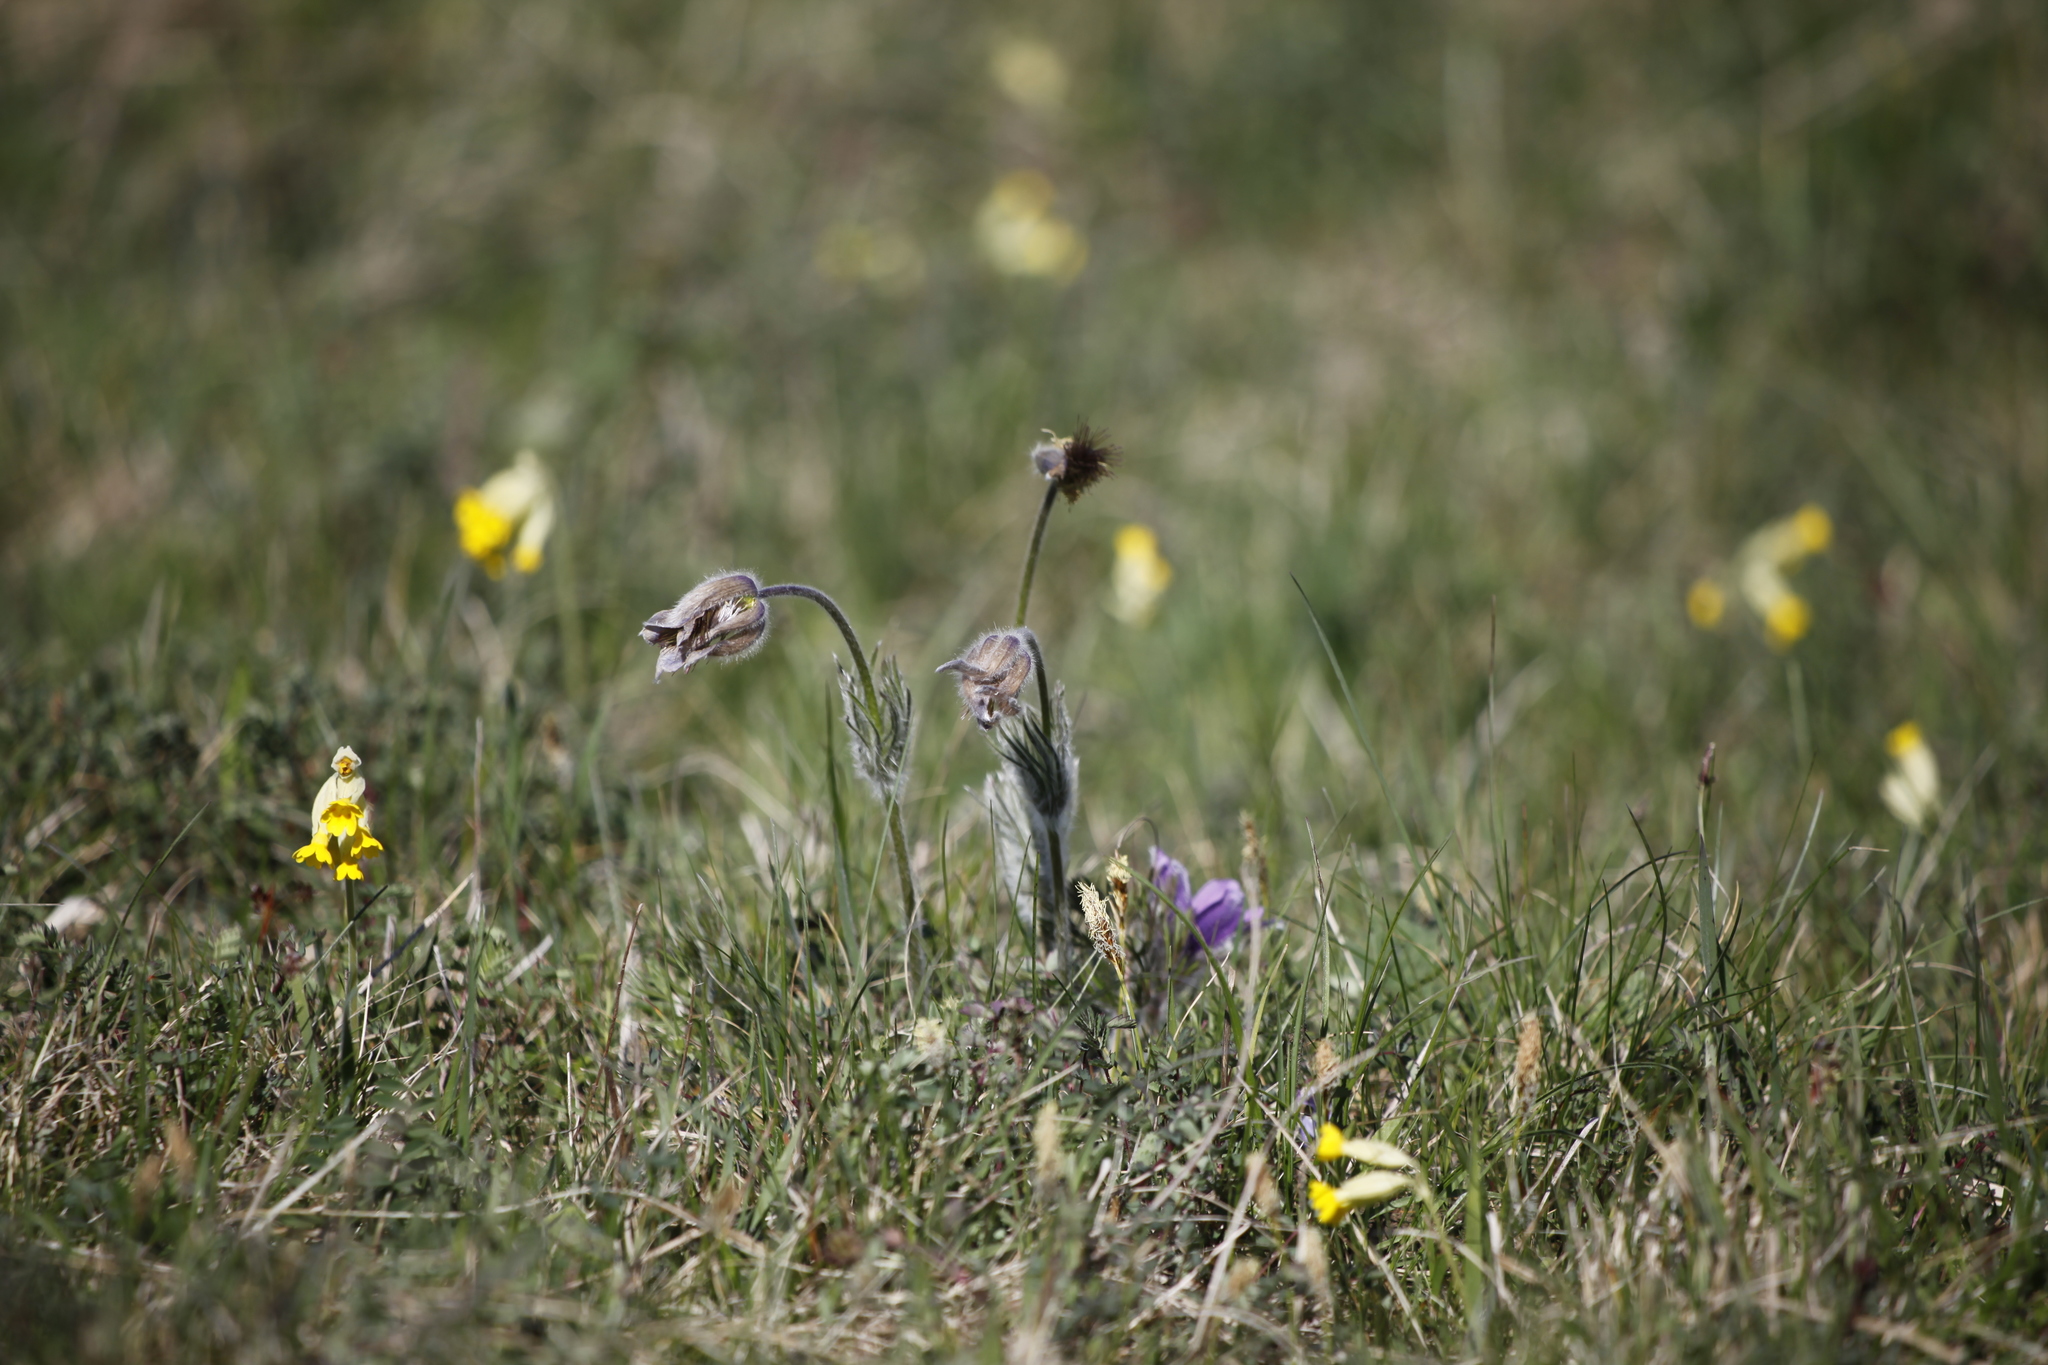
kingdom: Plantae
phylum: Tracheophyta
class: Magnoliopsida
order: Ranunculales
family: Ranunculaceae
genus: Pulsatilla
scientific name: Pulsatilla vulgaris
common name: Pasqueflower
